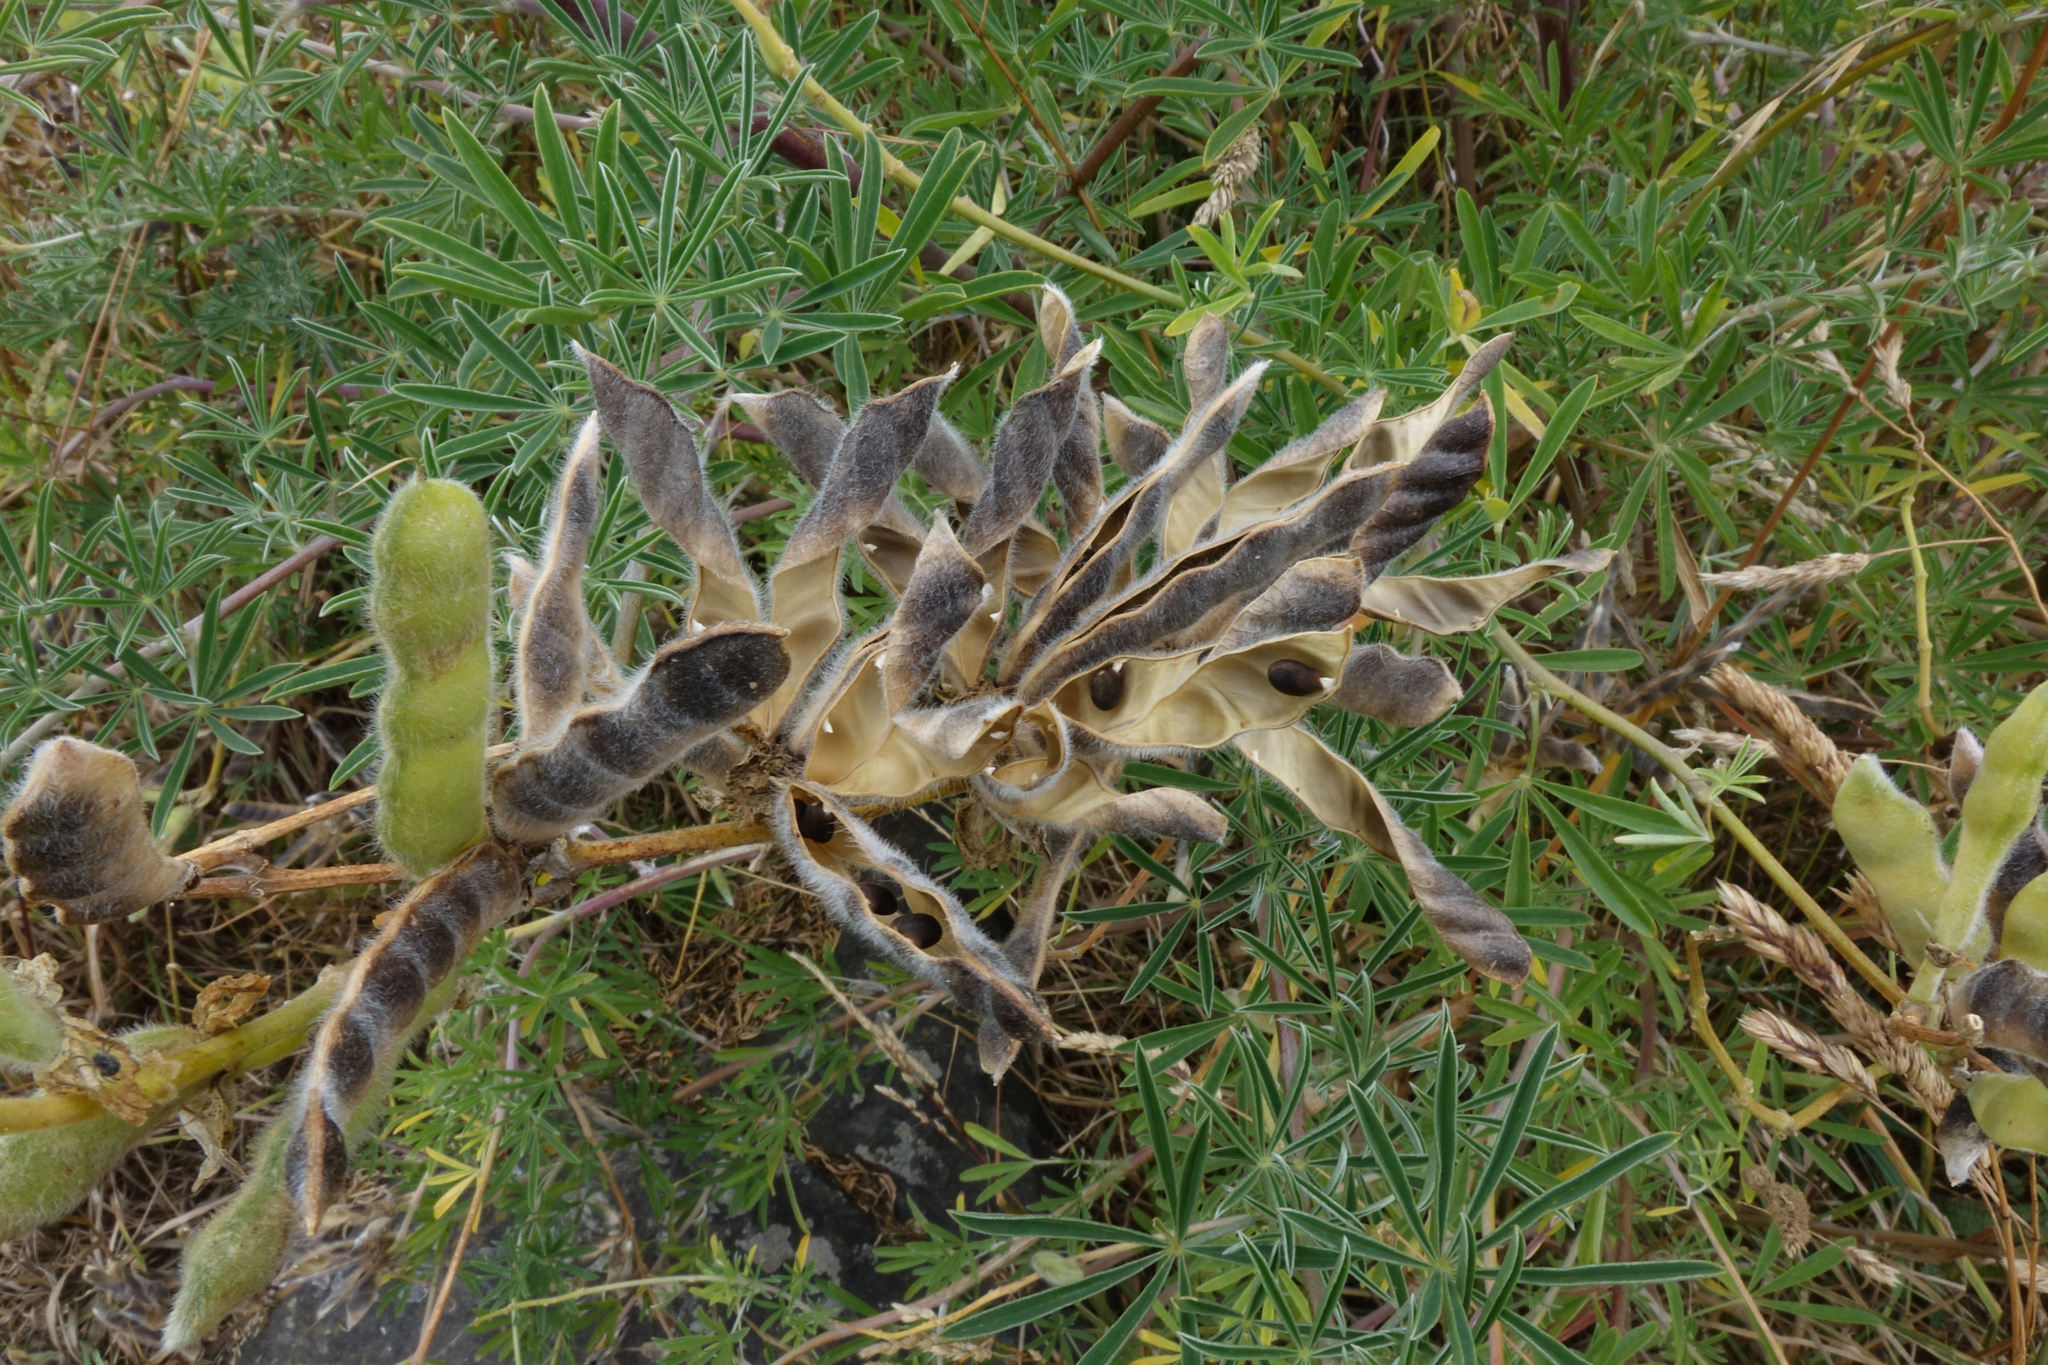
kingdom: Plantae
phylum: Tracheophyta
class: Magnoliopsida
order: Fabales
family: Fabaceae
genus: Lupinus
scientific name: Lupinus arboreus
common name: Yellow bush lupine
